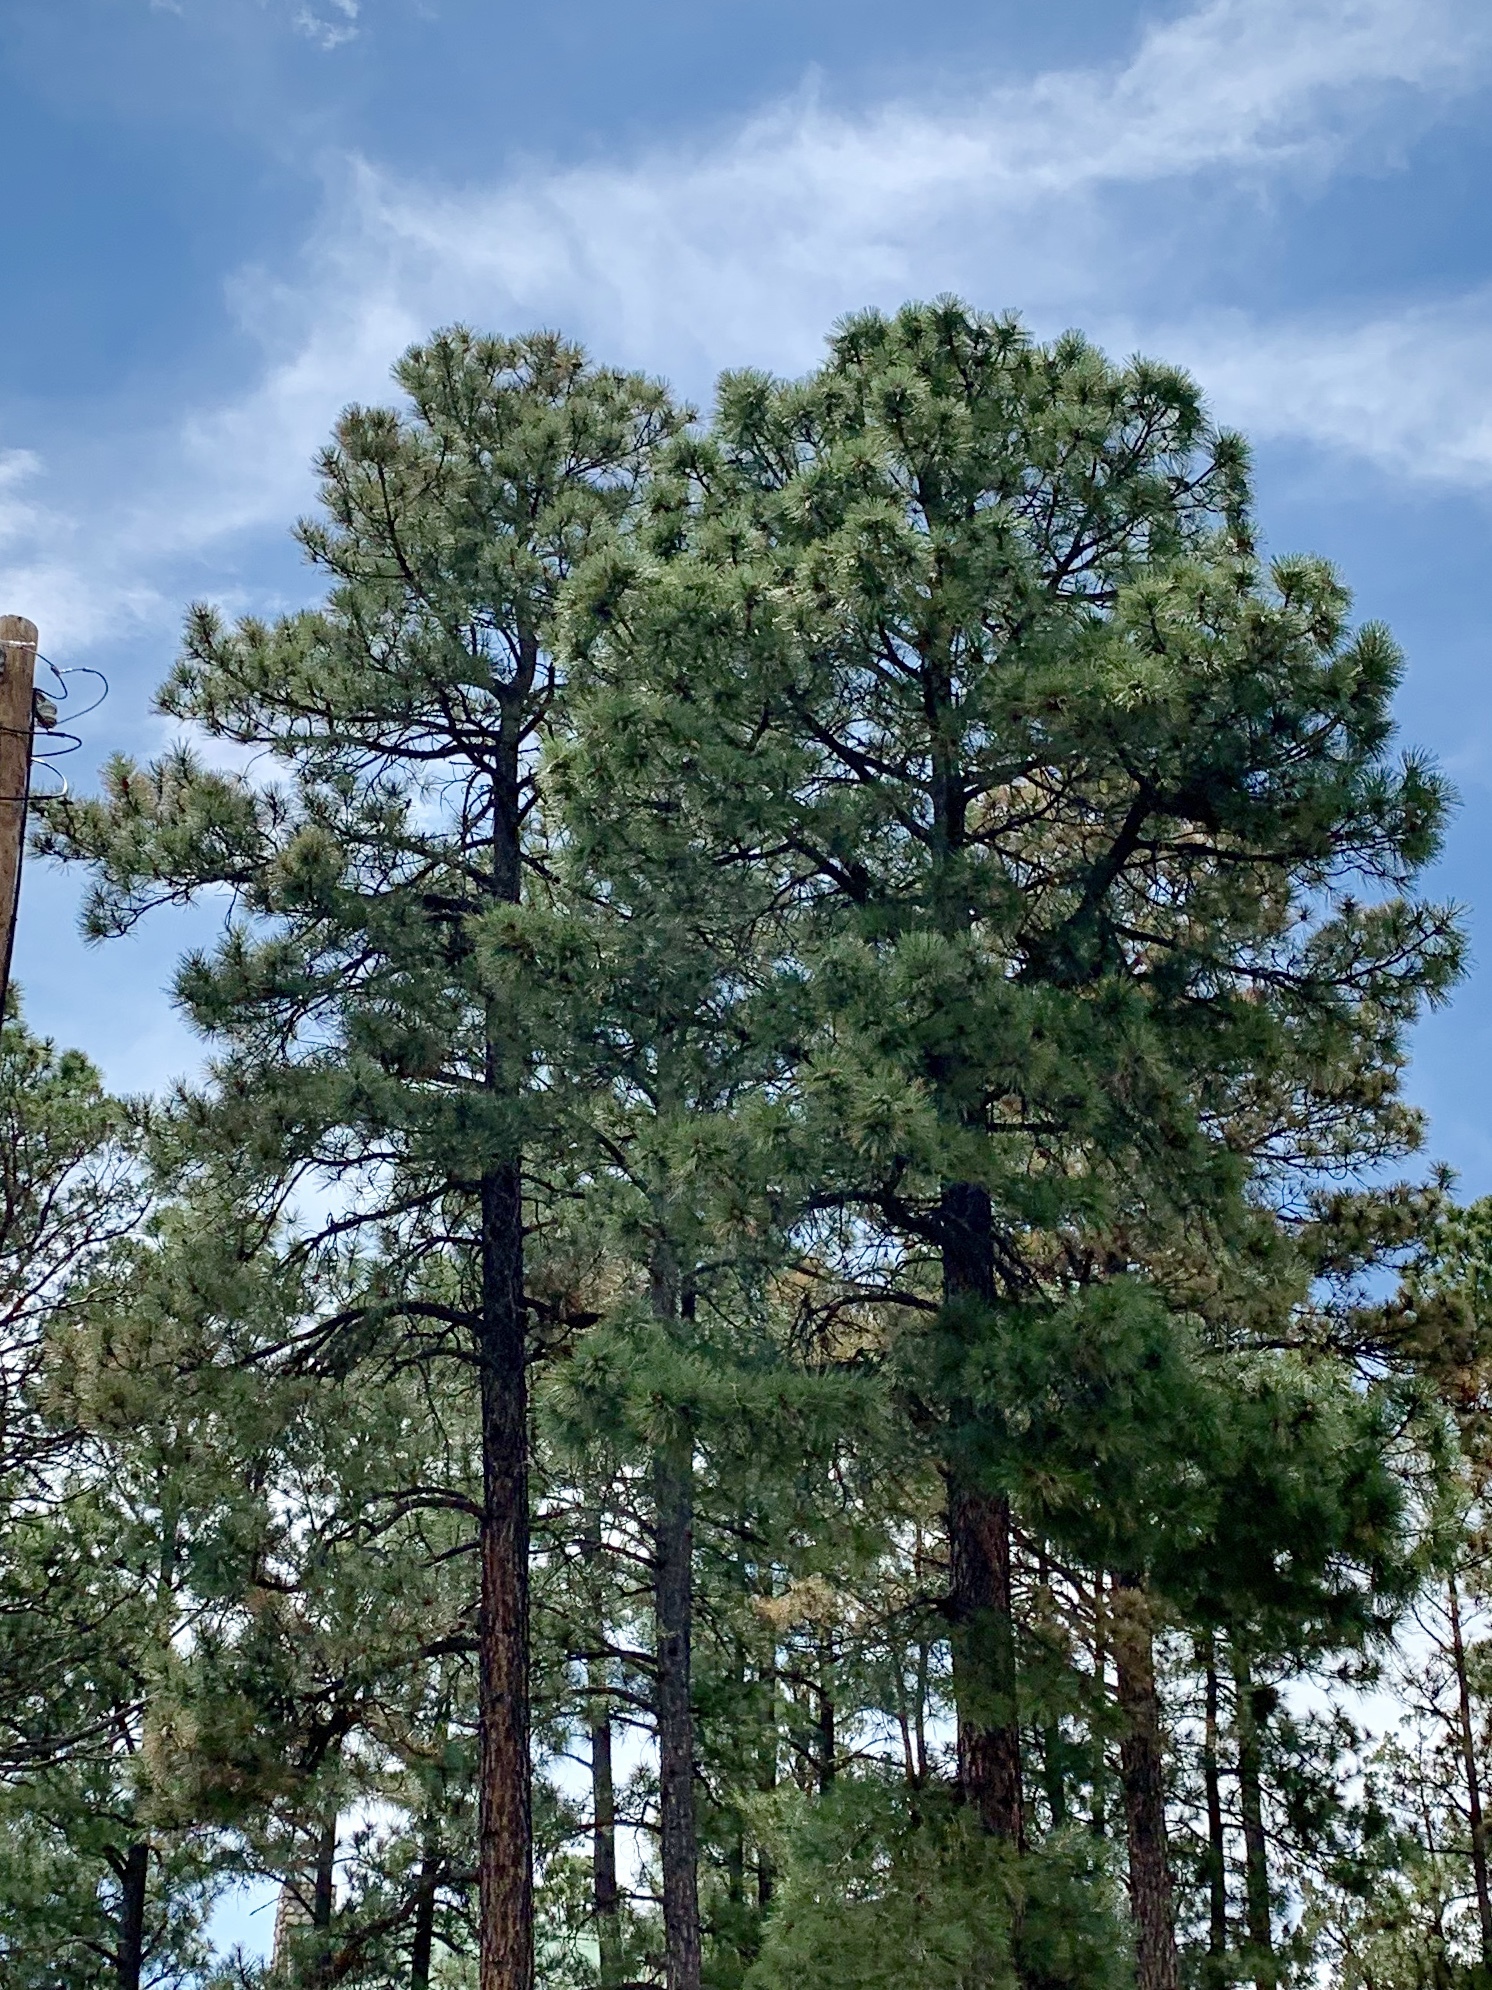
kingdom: Plantae
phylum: Tracheophyta
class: Pinopsida
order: Pinales
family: Pinaceae
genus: Pinus
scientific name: Pinus ponderosa
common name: Western yellow-pine
